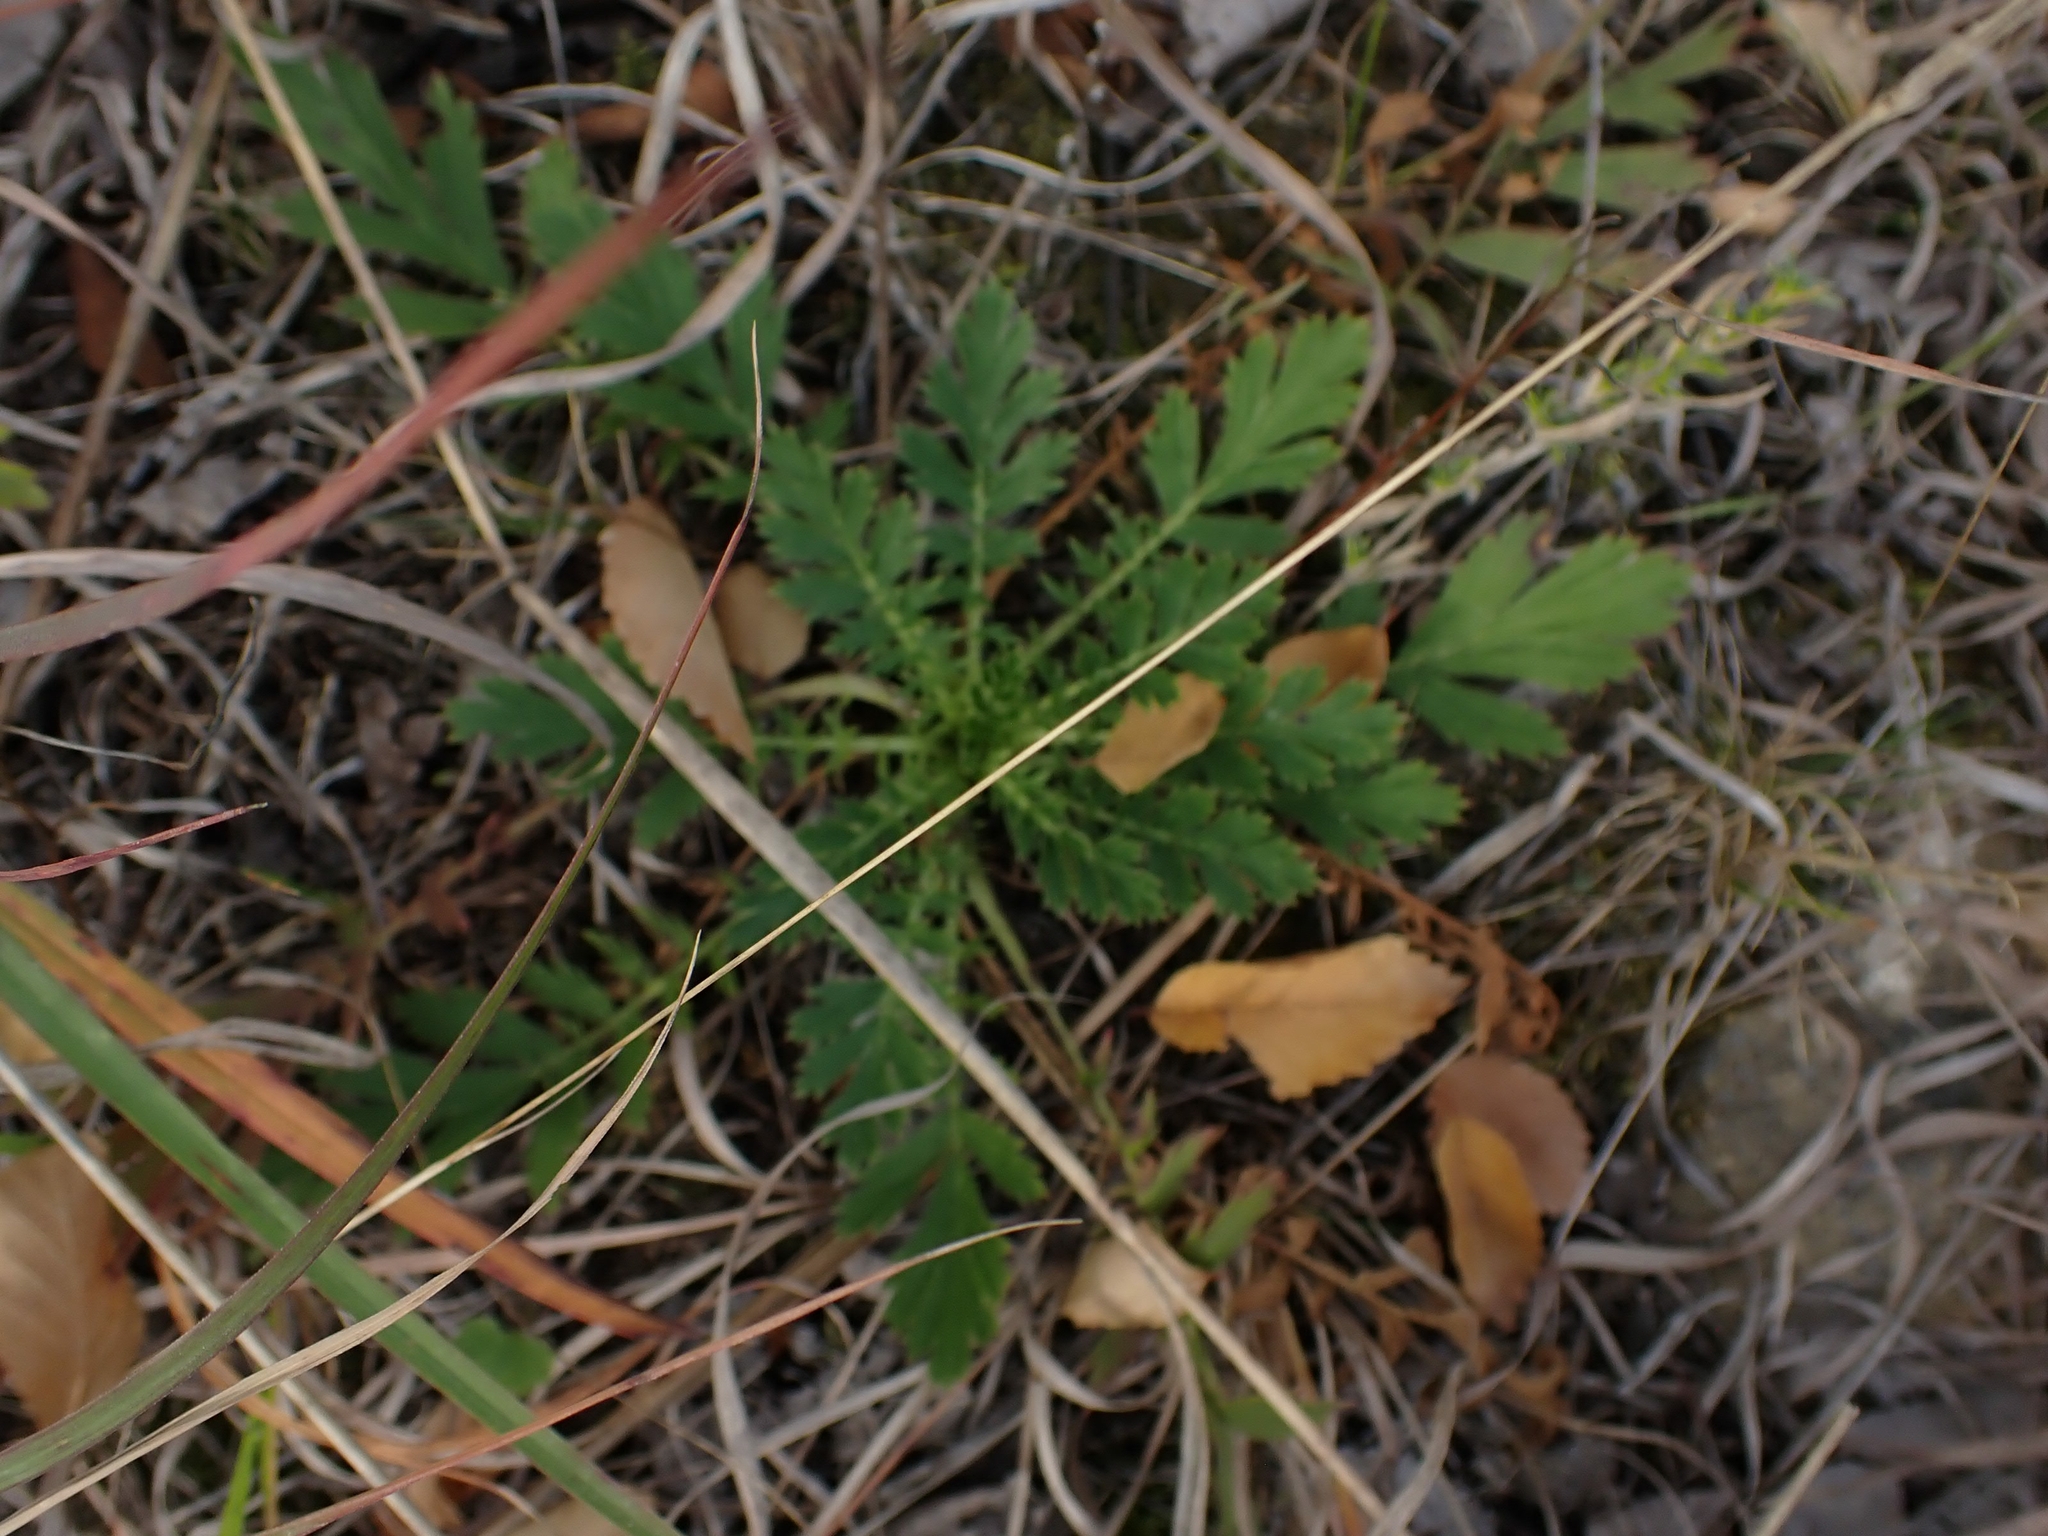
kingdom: Plantae
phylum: Tracheophyta
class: Magnoliopsida
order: Rosales
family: Rosaceae
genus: Geum
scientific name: Geum triflorum
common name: Old man's whiskers
